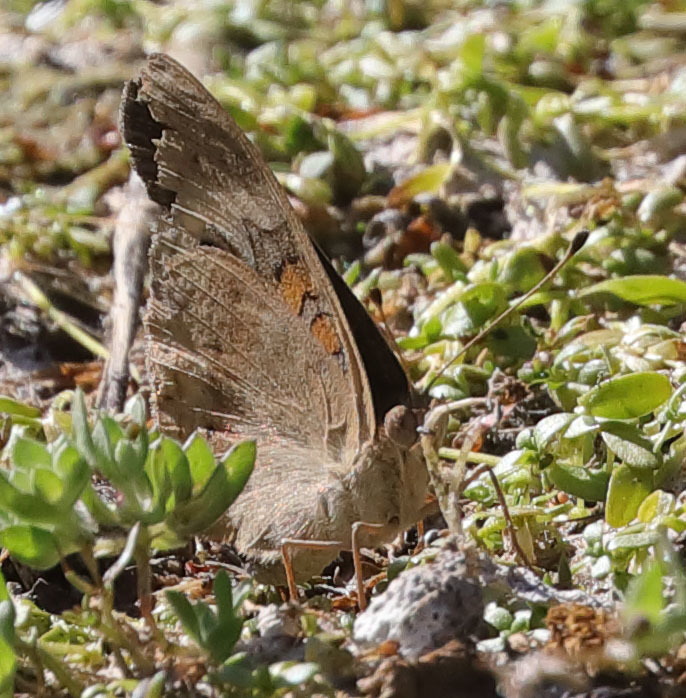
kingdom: Animalia
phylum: Arthropoda
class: Insecta
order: Lepidoptera
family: Nymphalidae
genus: Junonia
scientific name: Junonia grisea
